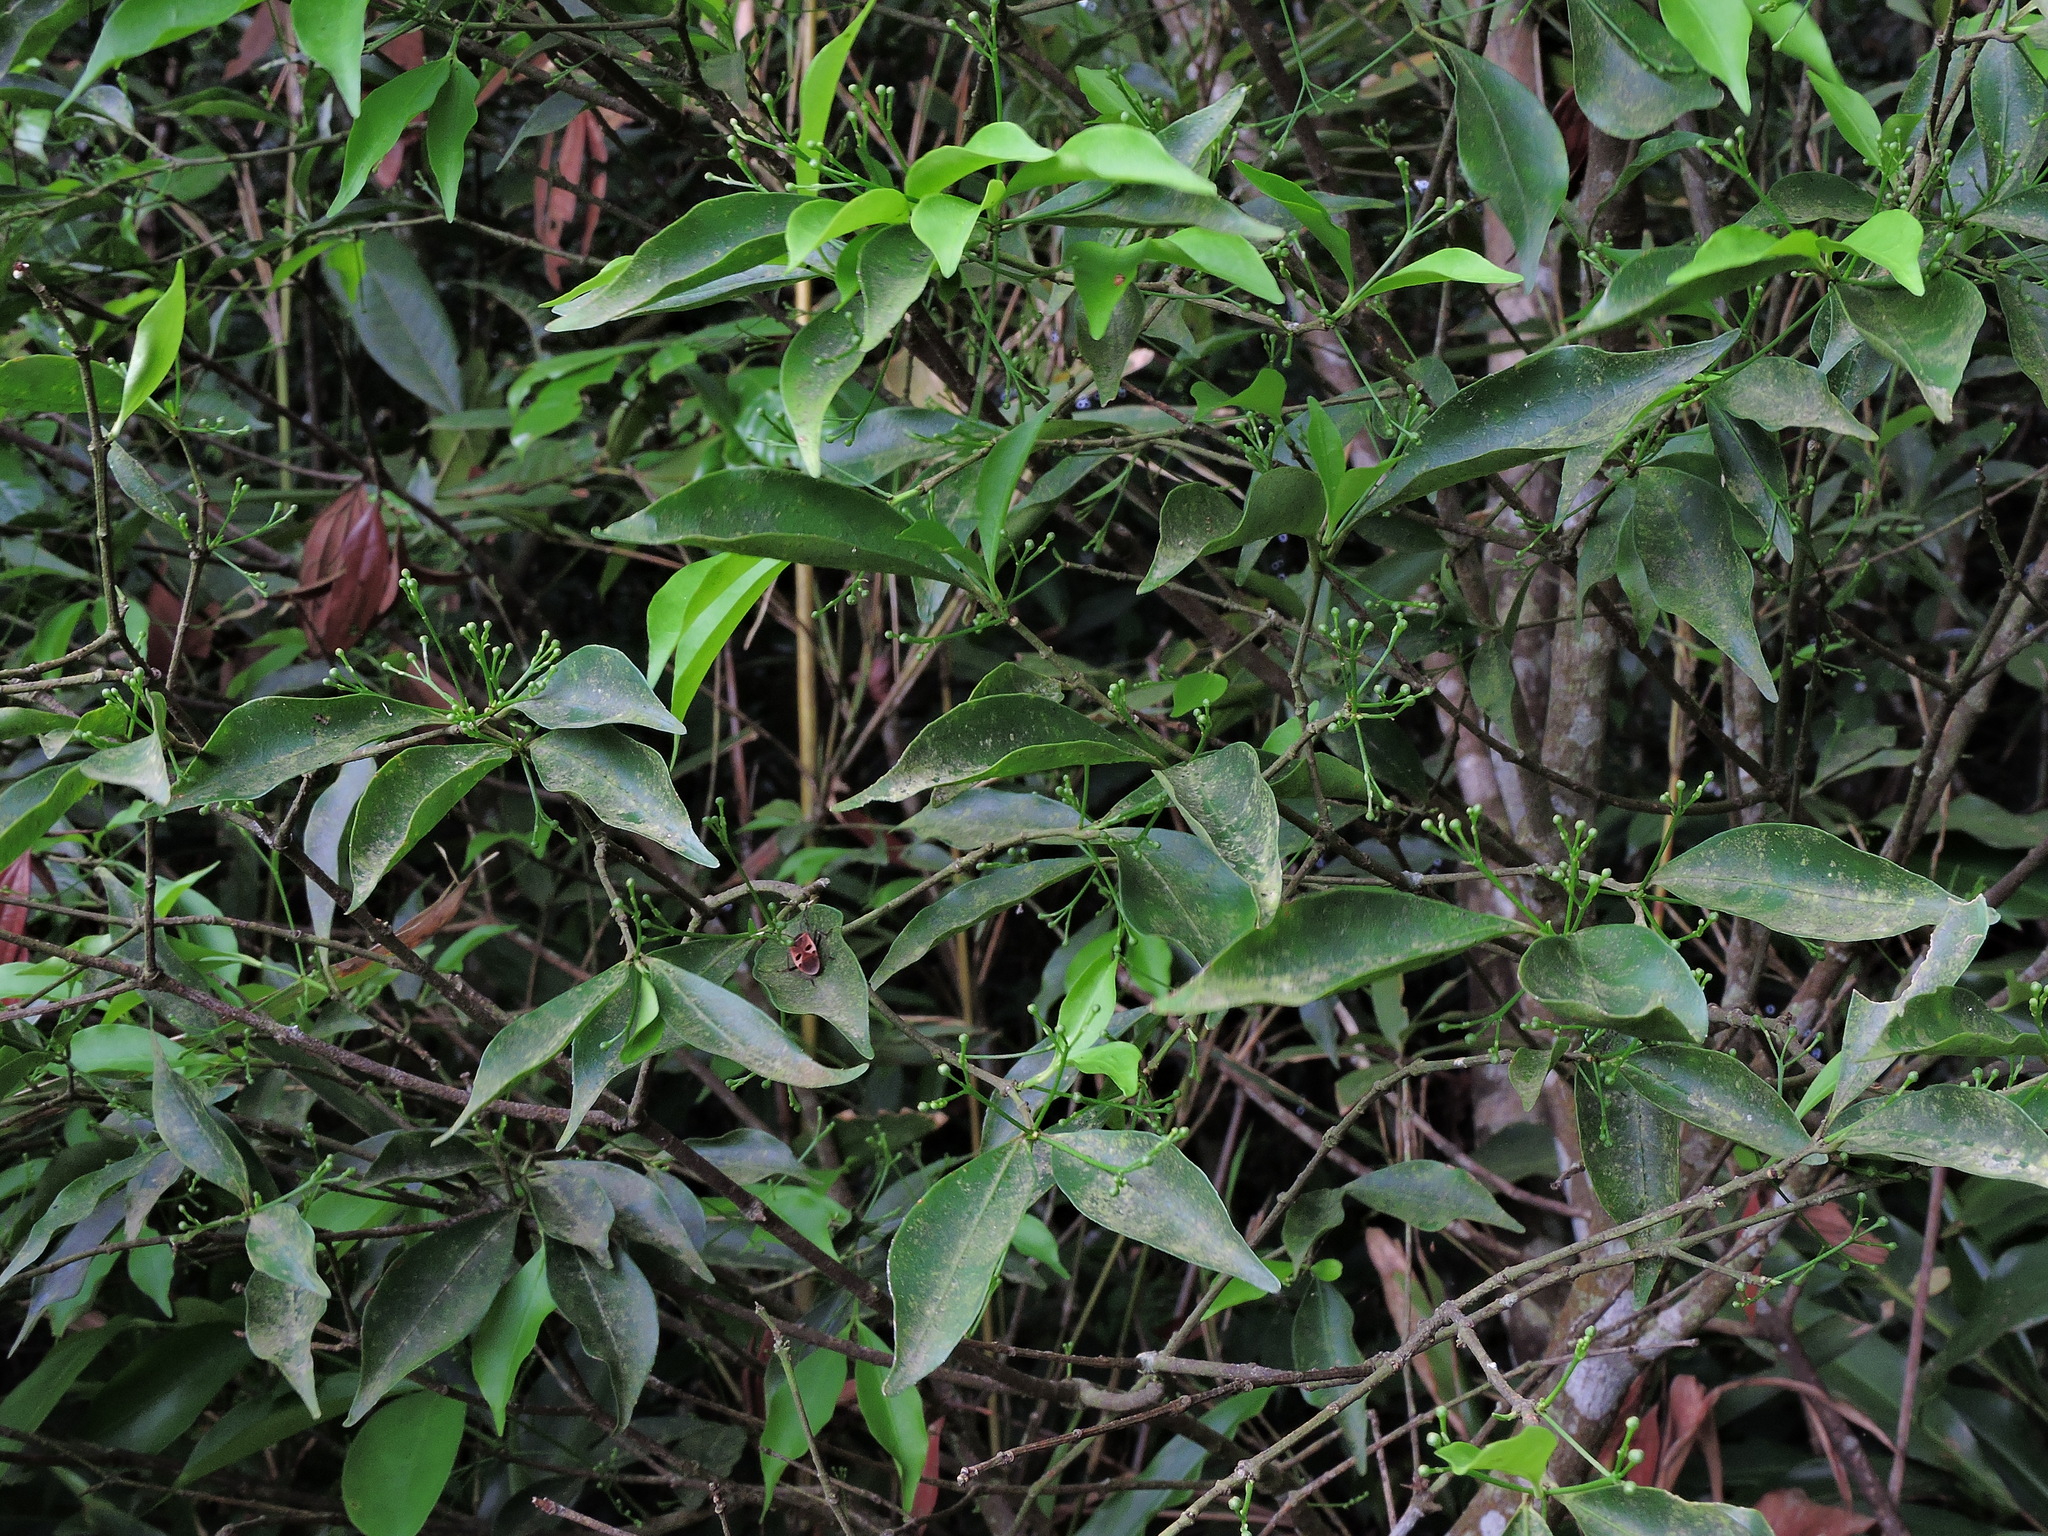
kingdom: Plantae
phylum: Tracheophyta
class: Magnoliopsida
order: Celastrales
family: Celastraceae
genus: Euonymus
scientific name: Euonymus laxiflorus
